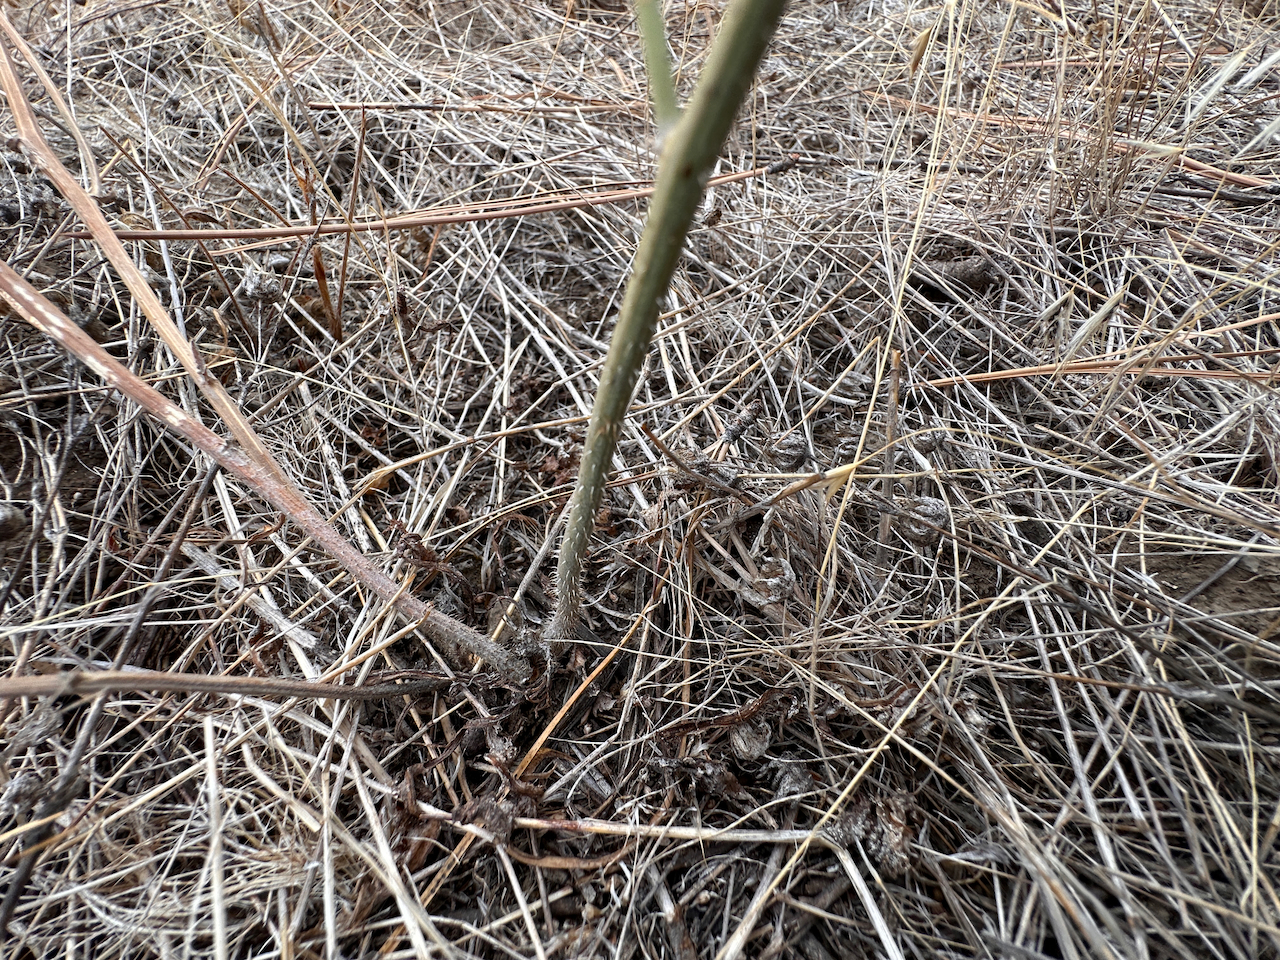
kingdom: Plantae
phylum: Tracheophyta
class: Magnoliopsida
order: Asterales
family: Asteraceae
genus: Chondrilla
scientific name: Chondrilla juncea
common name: Skeleton weed
